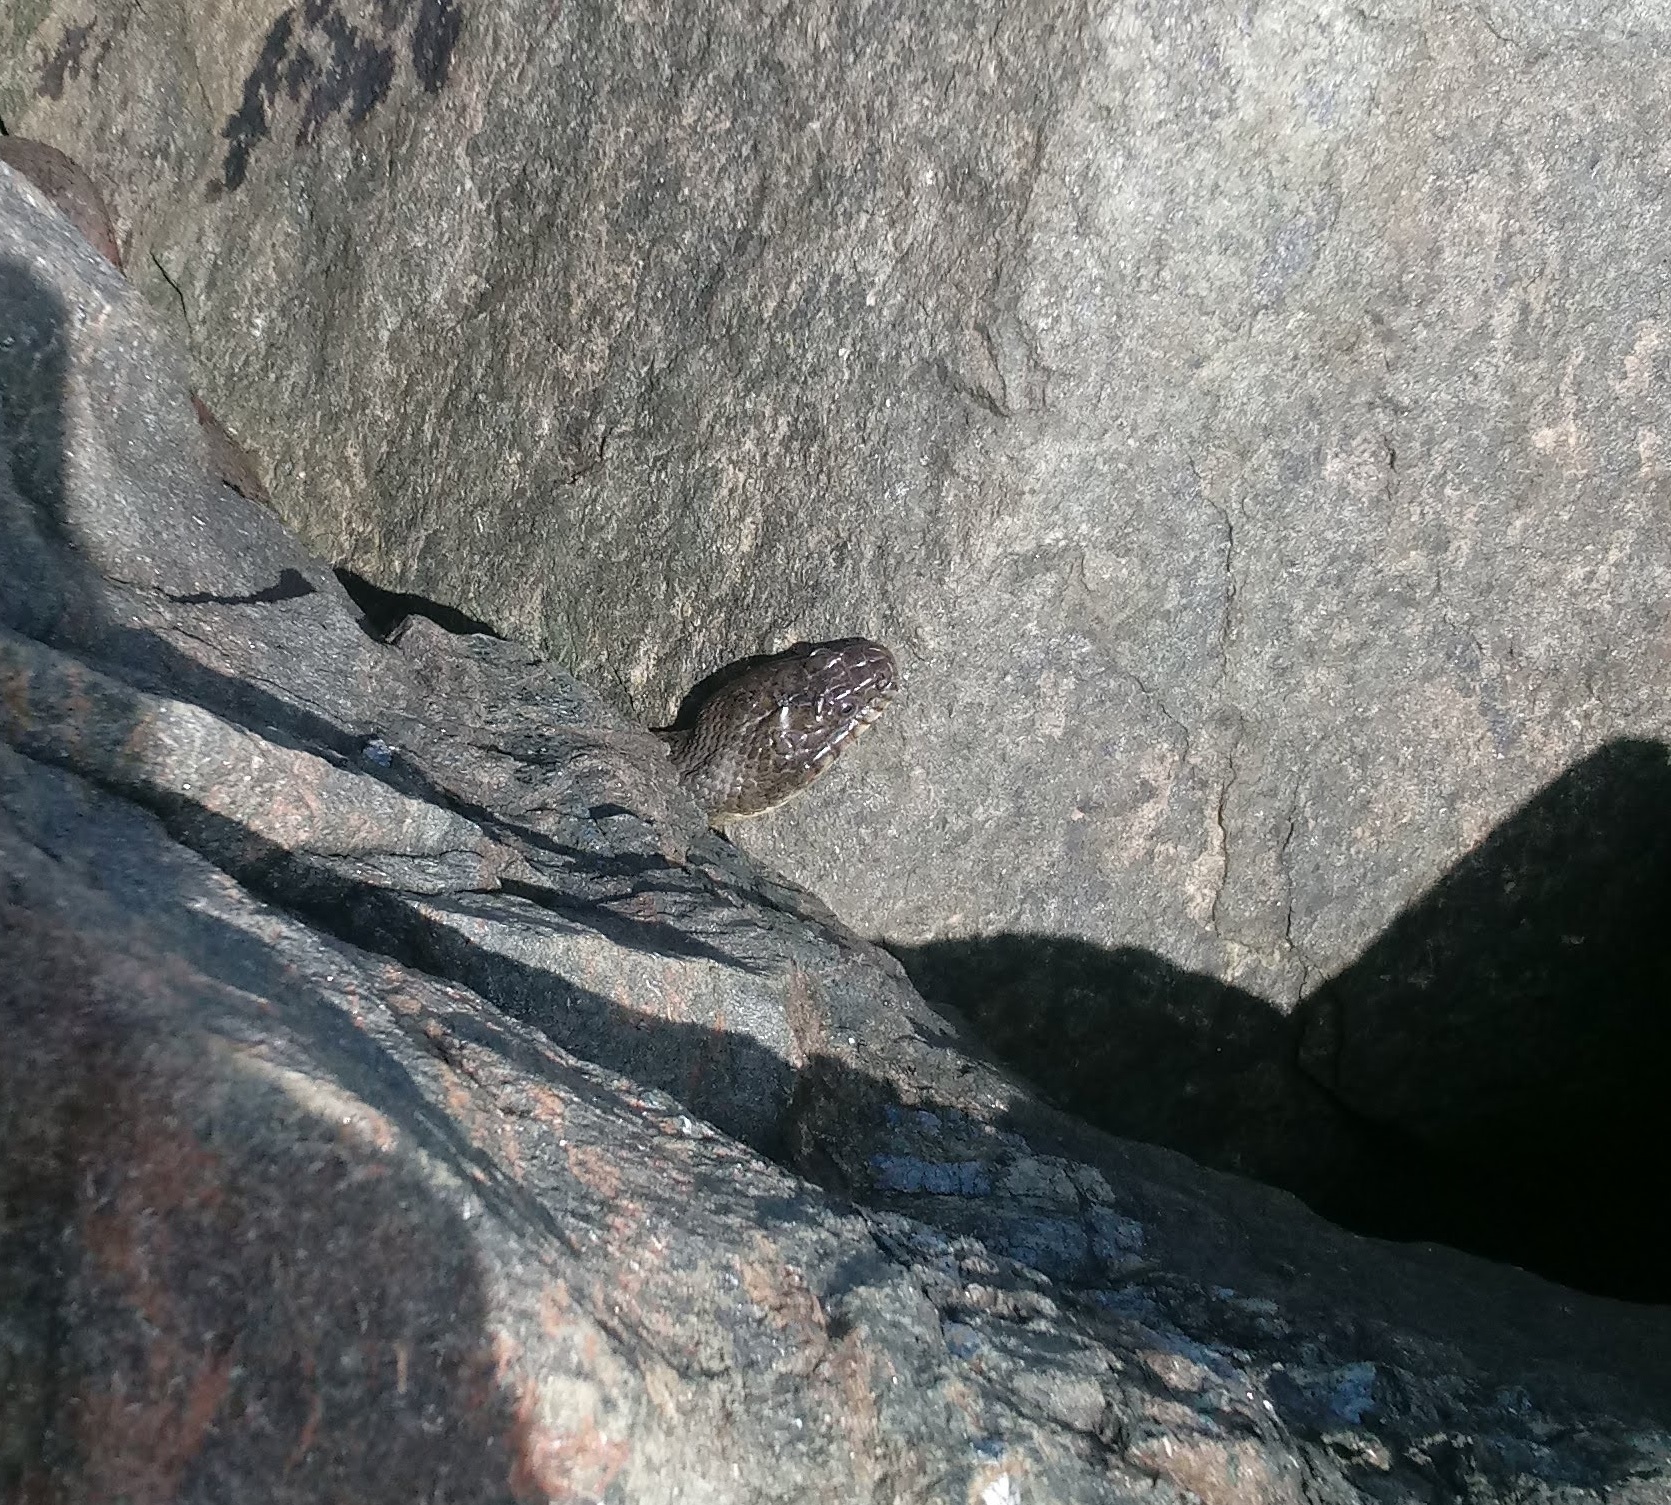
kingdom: Animalia
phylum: Chordata
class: Squamata
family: Colubridae
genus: Nerodia
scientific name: Nerodia sipedon
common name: Northern water snake
